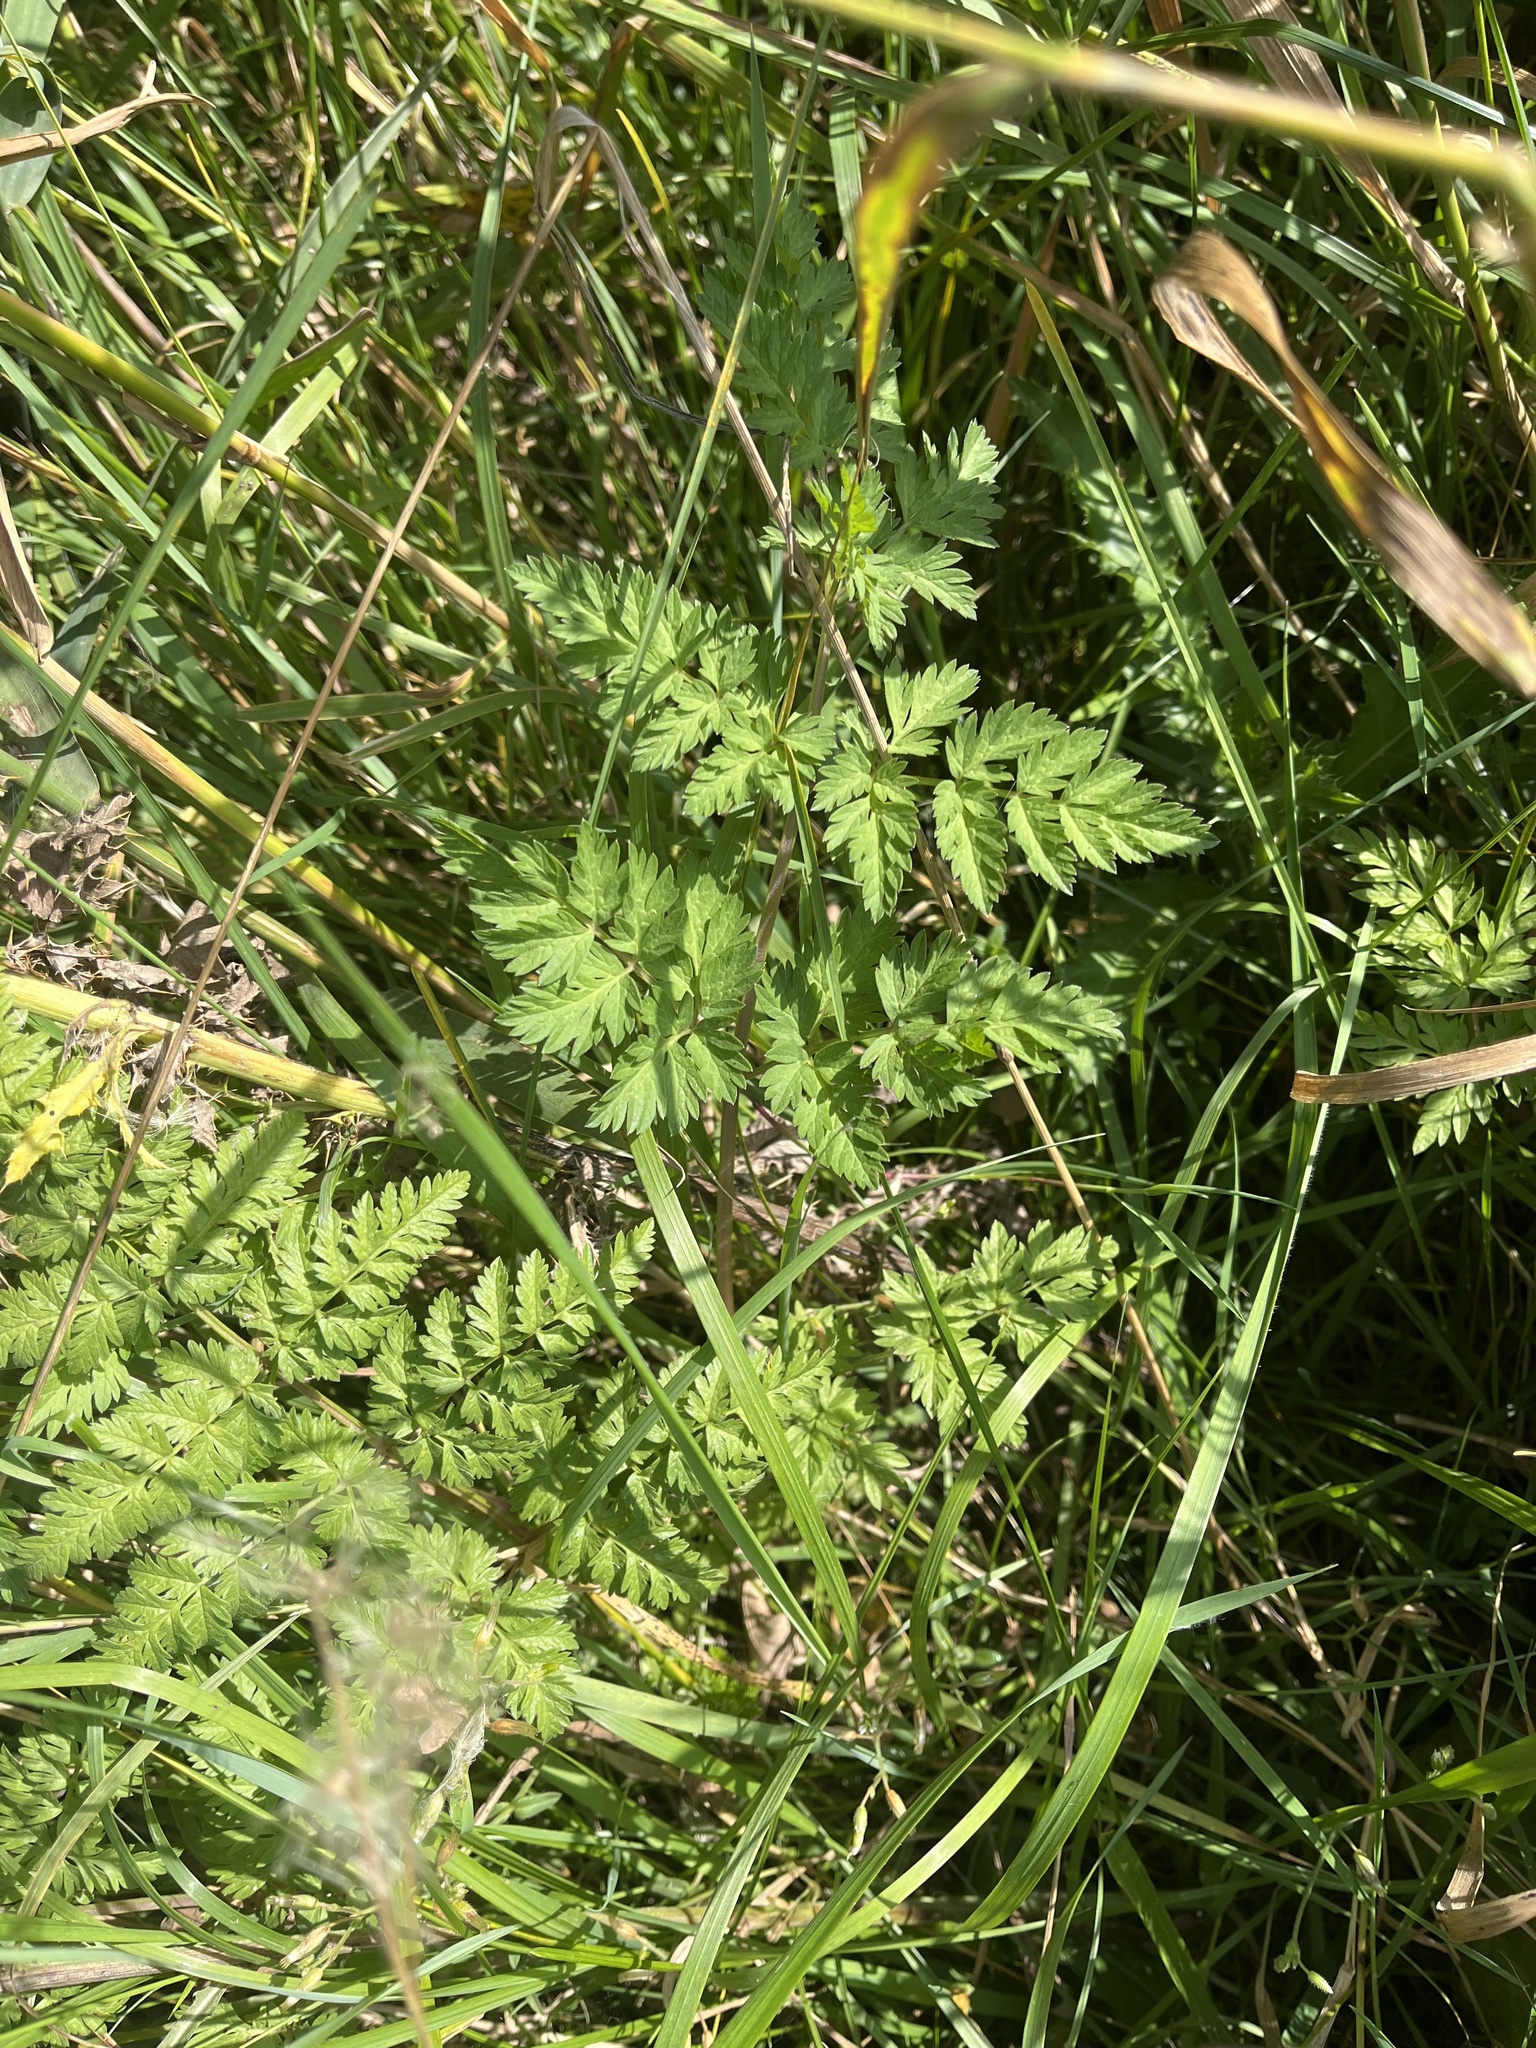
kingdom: Plantae
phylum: Tracheophyta
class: Magnoliopsida
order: Apiales
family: Apiaceae
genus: Anthriscus
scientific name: Anthriscus sylvestris
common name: Cow parsley
